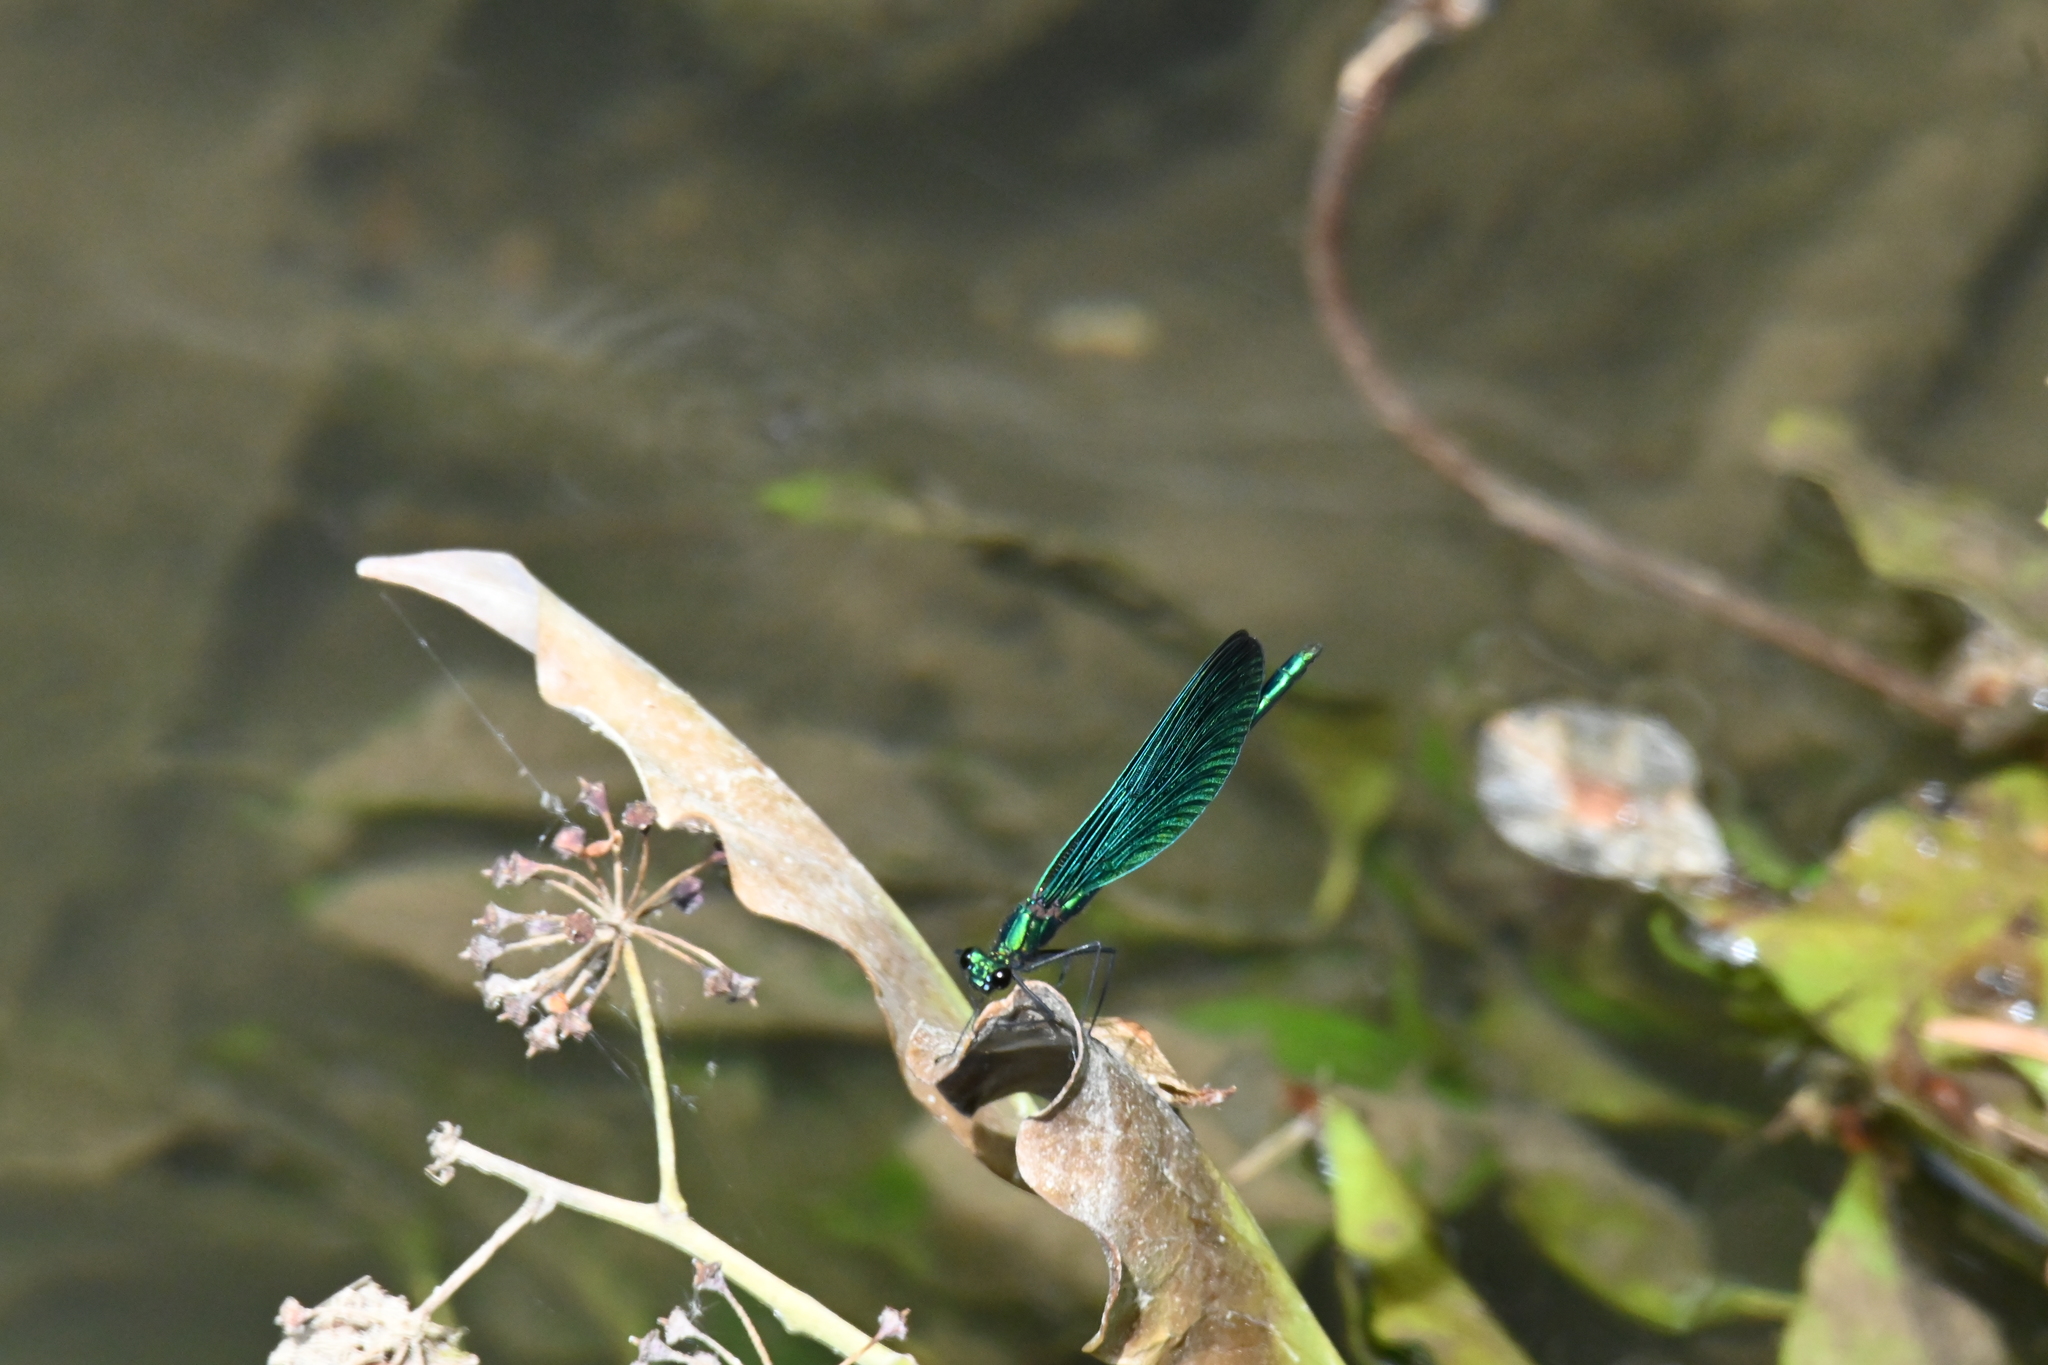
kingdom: Animalia
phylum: Arthropoda
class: Insecta
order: Odonata
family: Calopterygidae
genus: Calopteryx
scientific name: Calopteryx virgo
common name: Beautiful demoiselle
